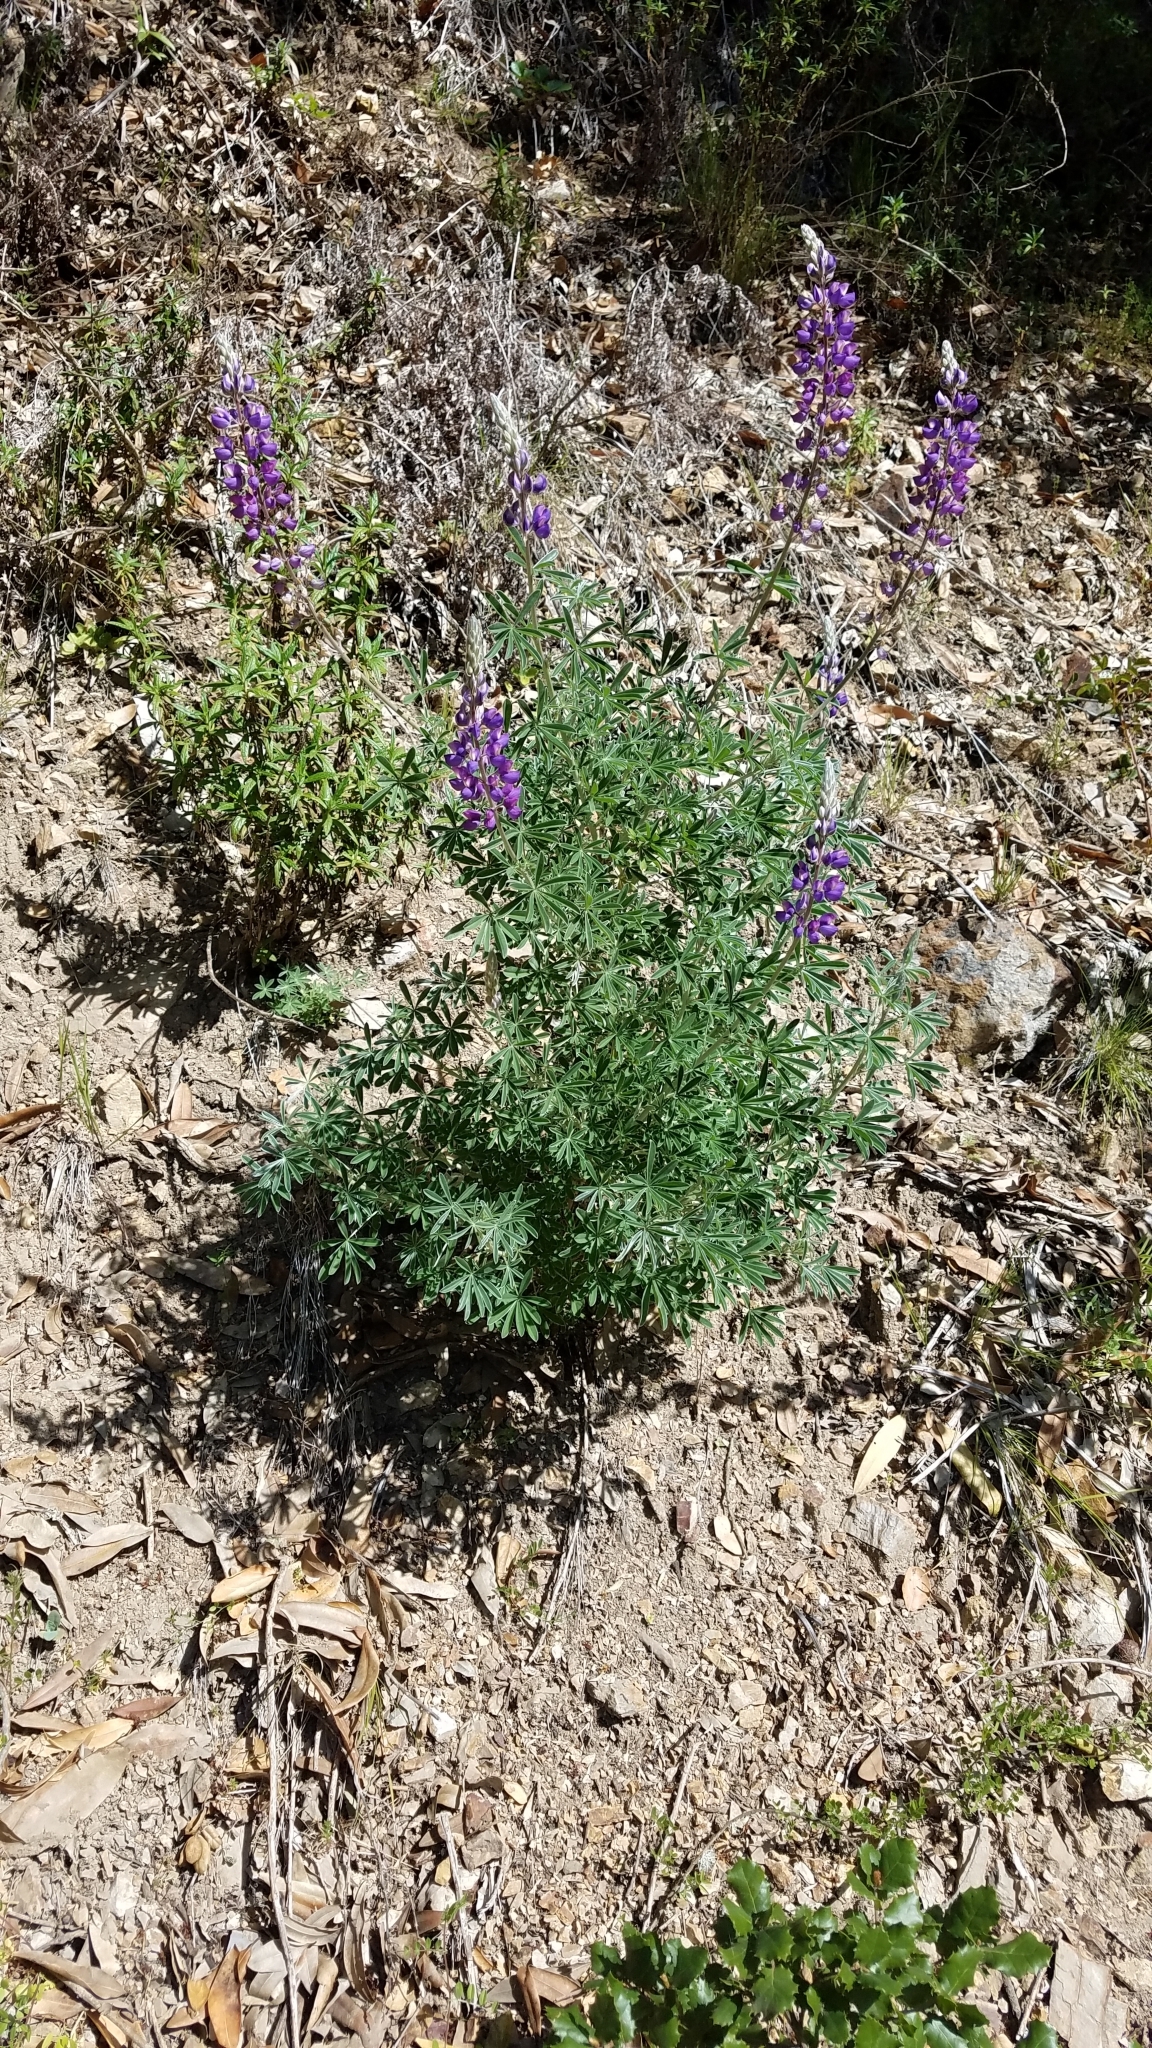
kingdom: Plantae
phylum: Tracheophyta
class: Magnoliopsida
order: Fabales
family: Fabaceae
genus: Lupinus
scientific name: Lupinus albifrons
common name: Foothill lupine
